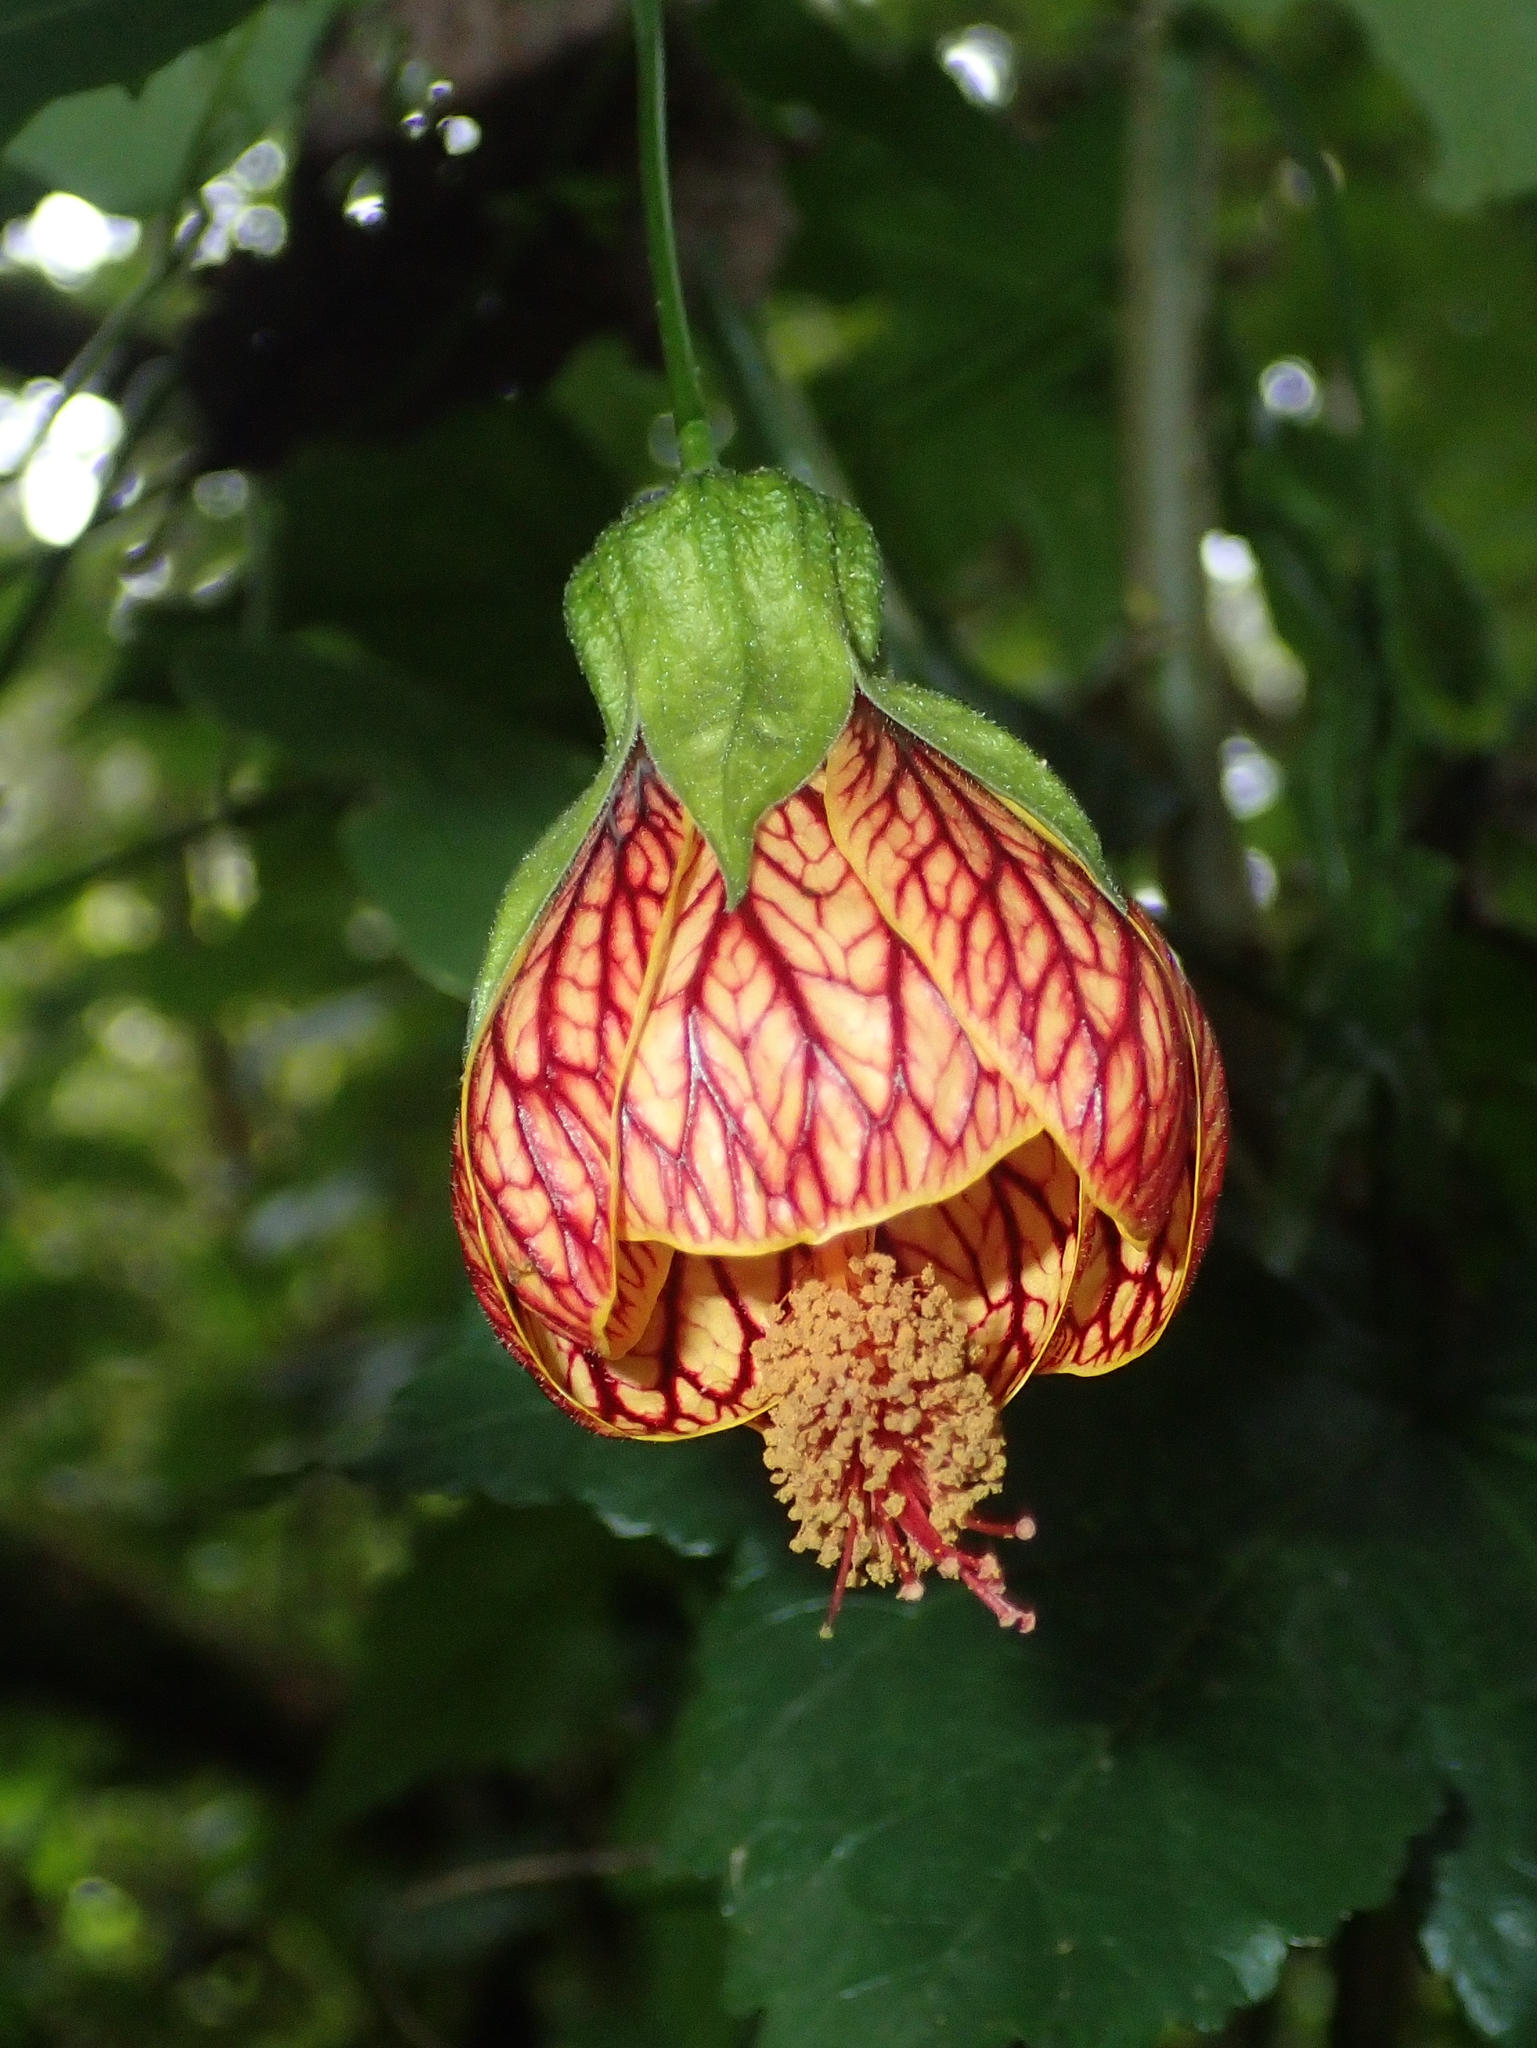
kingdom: Plantae
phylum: Tracheophyta
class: Magnoliopsida
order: Malvales
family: Malvaceae
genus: Callianthe
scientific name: Callianthe picta
